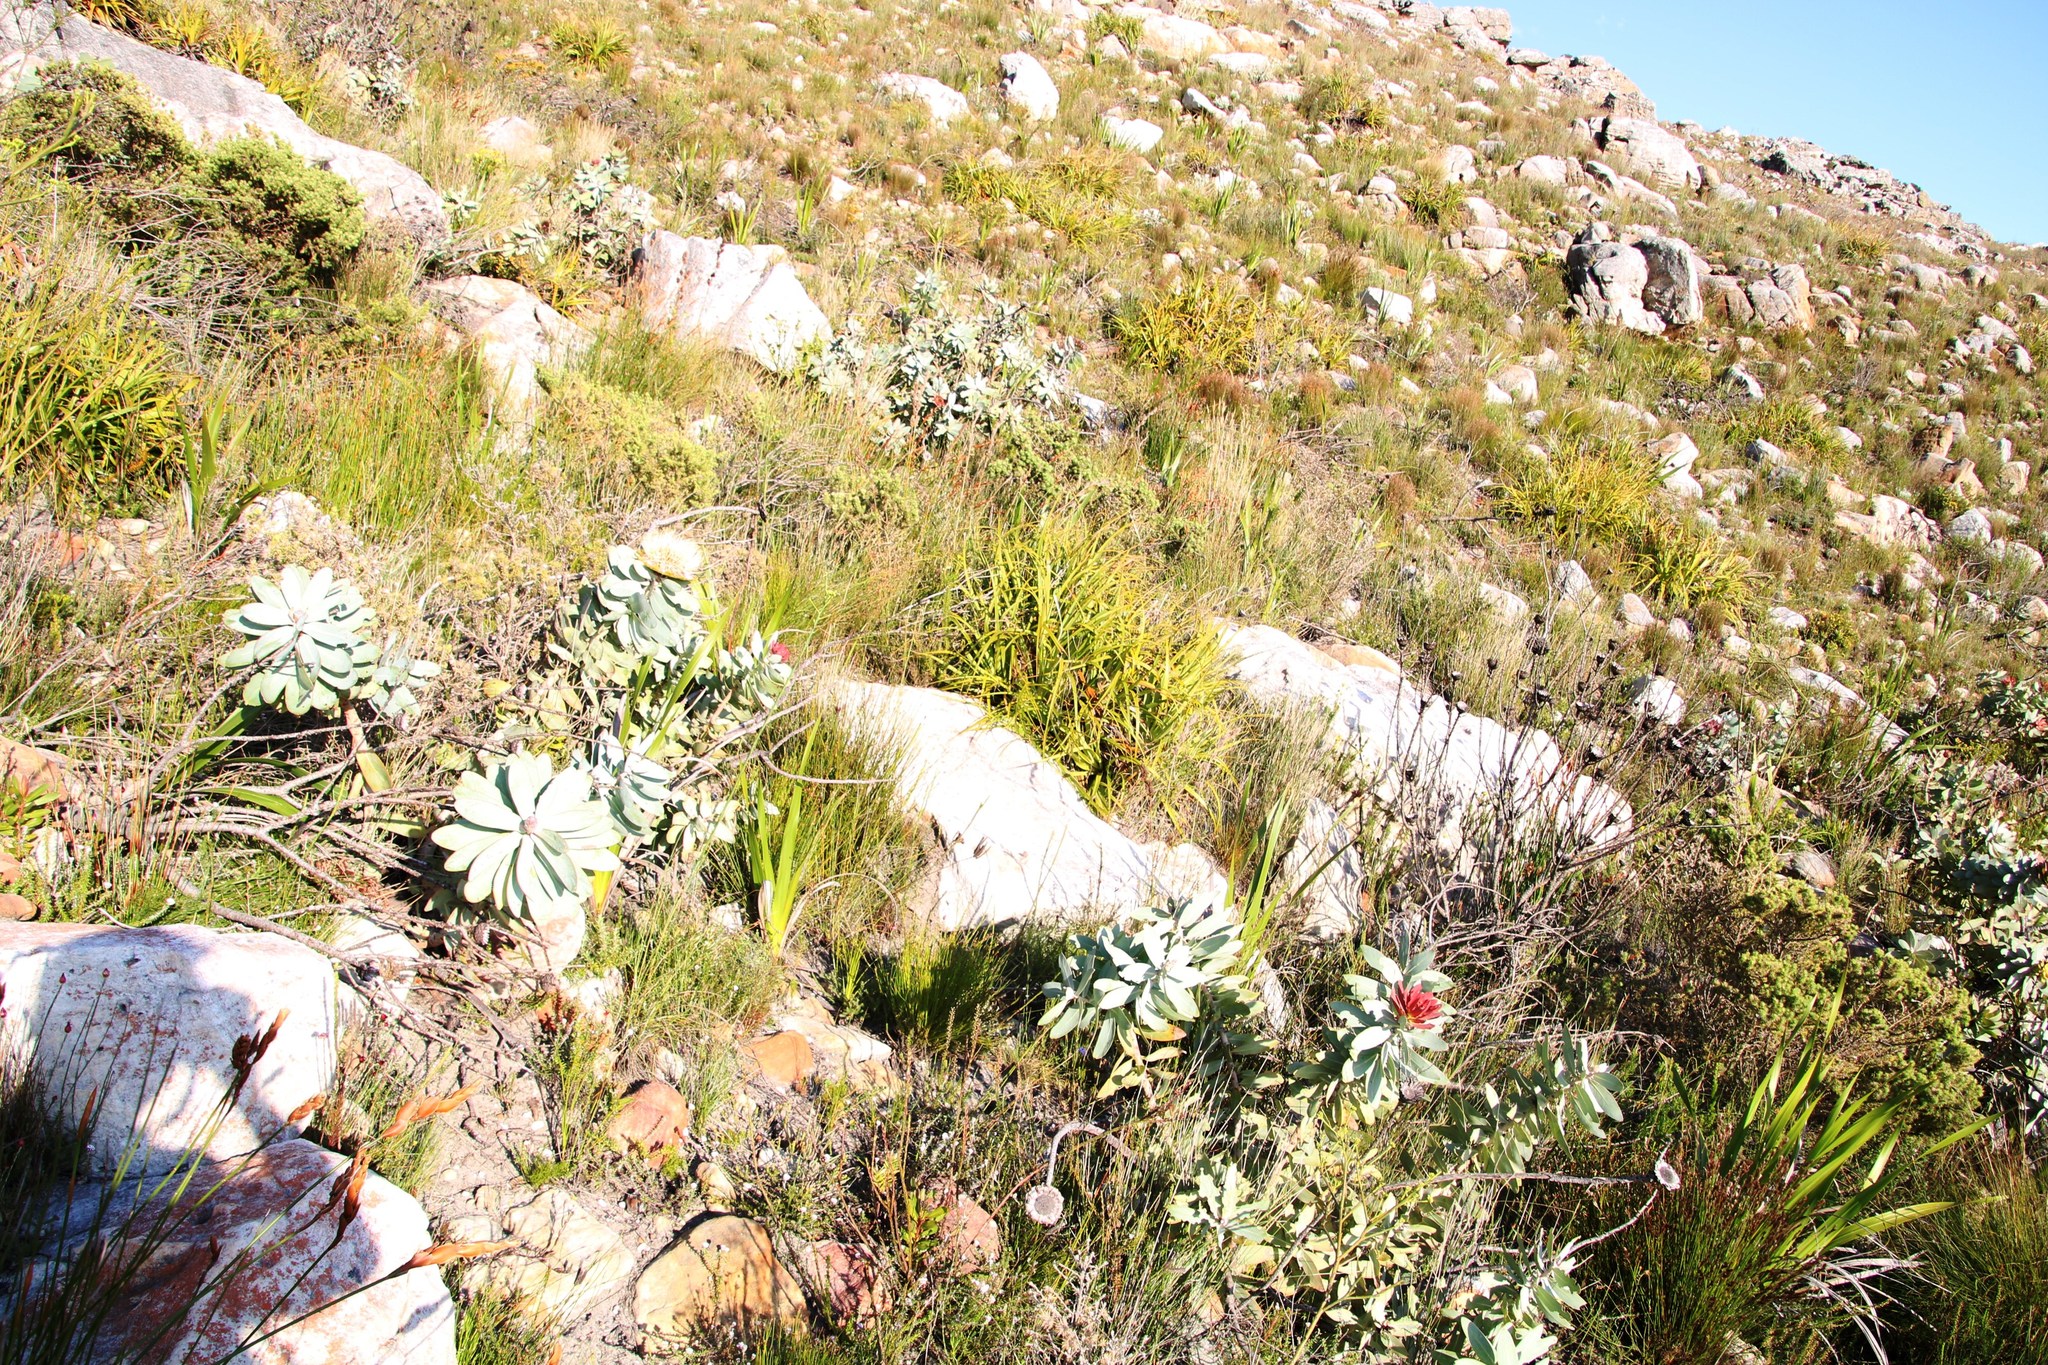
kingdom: Plantae
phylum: Tracheophyta
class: Magnoliopsida
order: Proteales
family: Proteaceae
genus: Protea
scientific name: Protea nitida
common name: Tree protea
